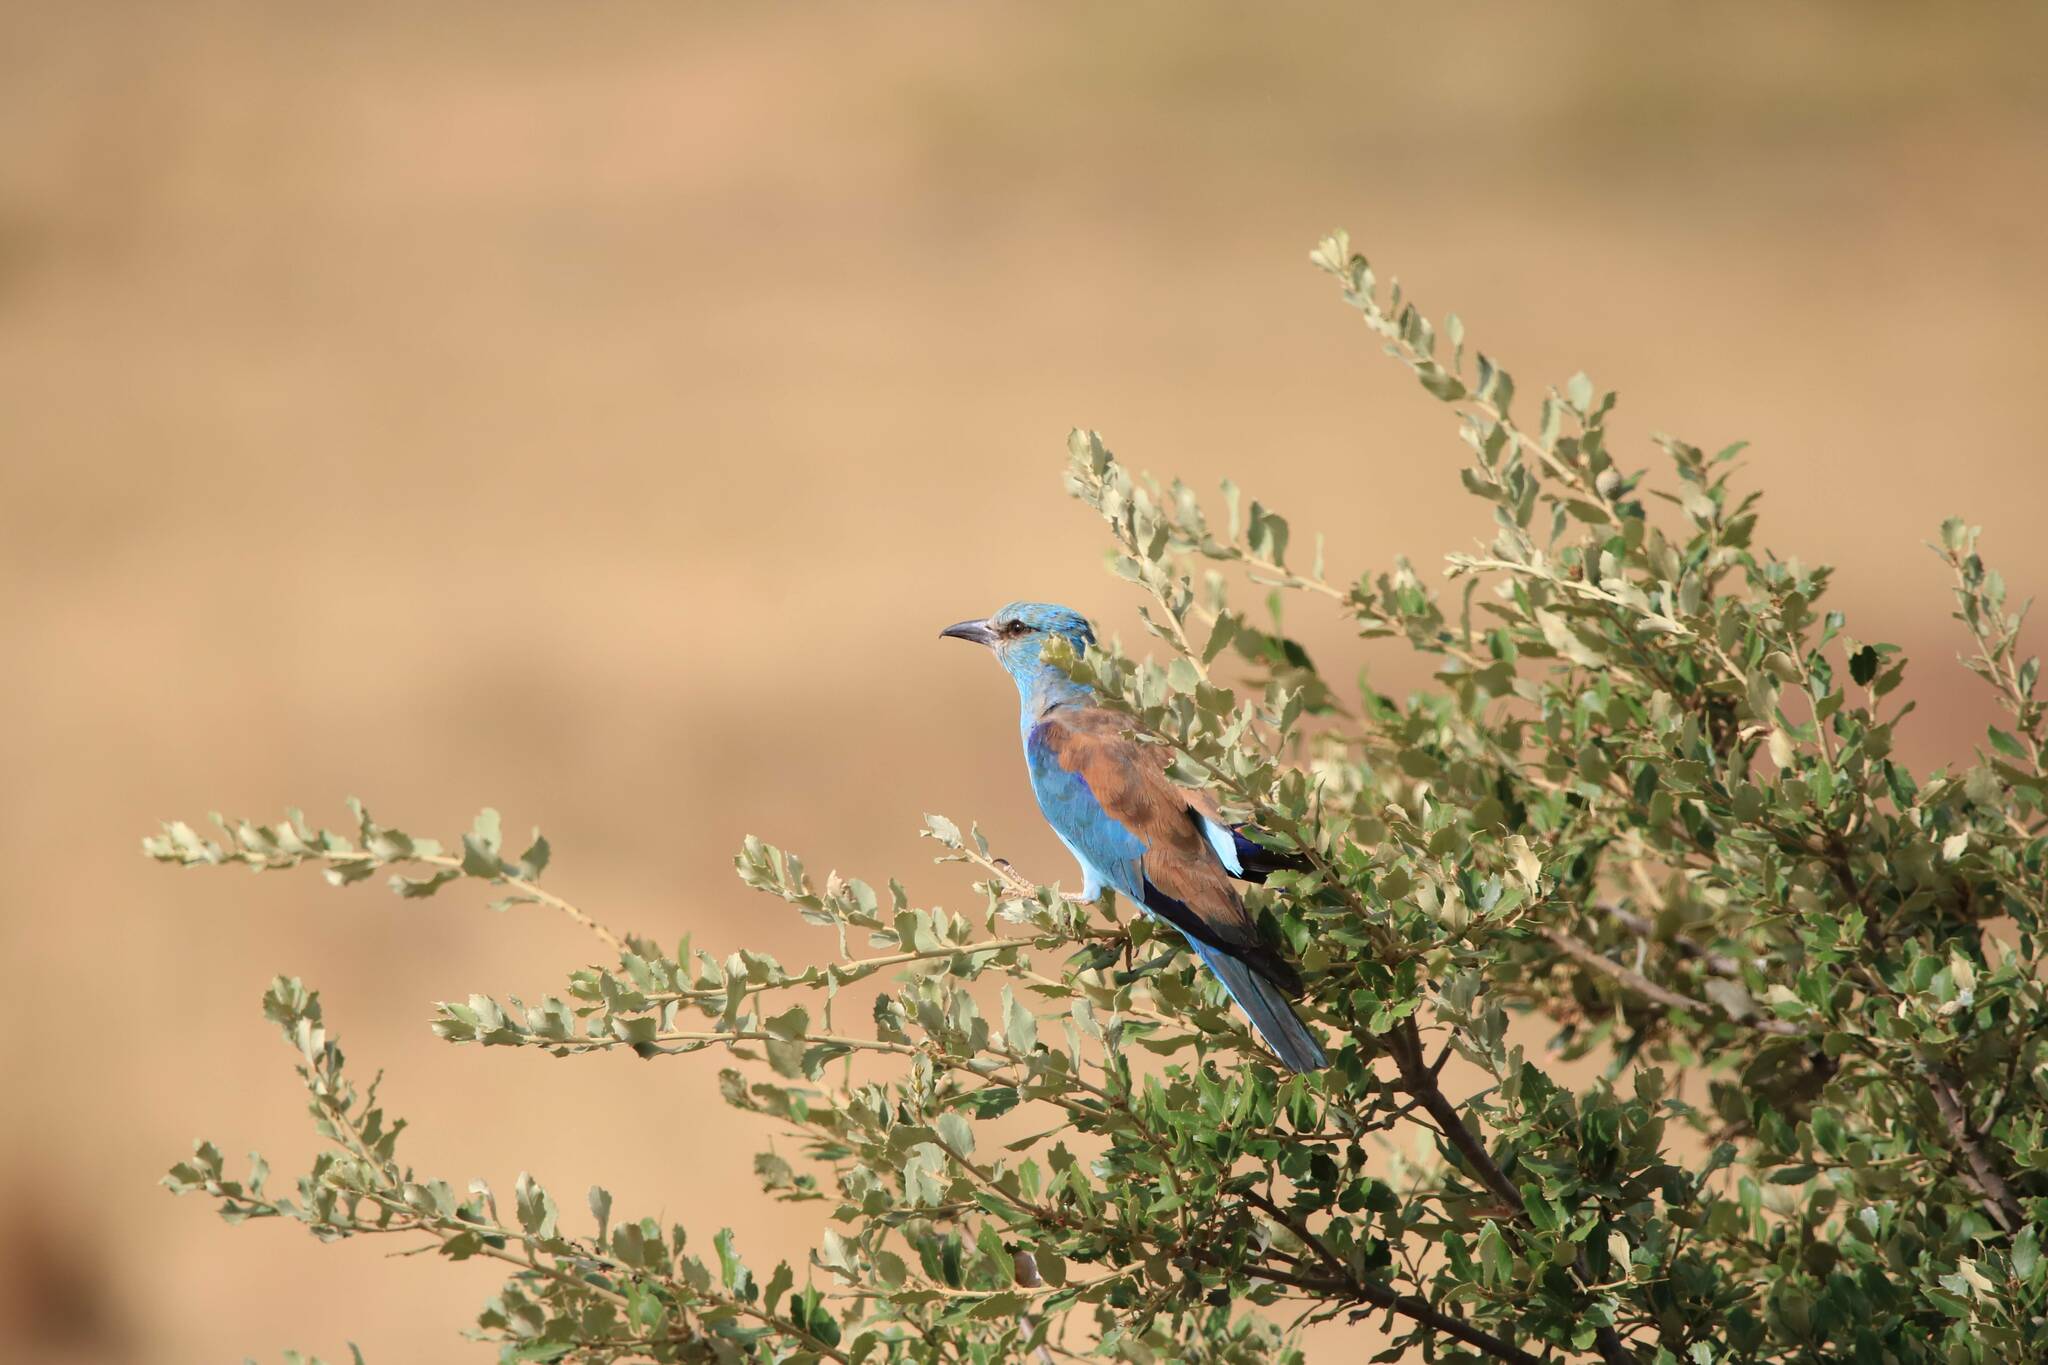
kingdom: Animalia
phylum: Chordata
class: Aves
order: Coraciiformes
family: Coraciidae
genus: Coracias
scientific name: Coracias garrulus
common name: European roller
